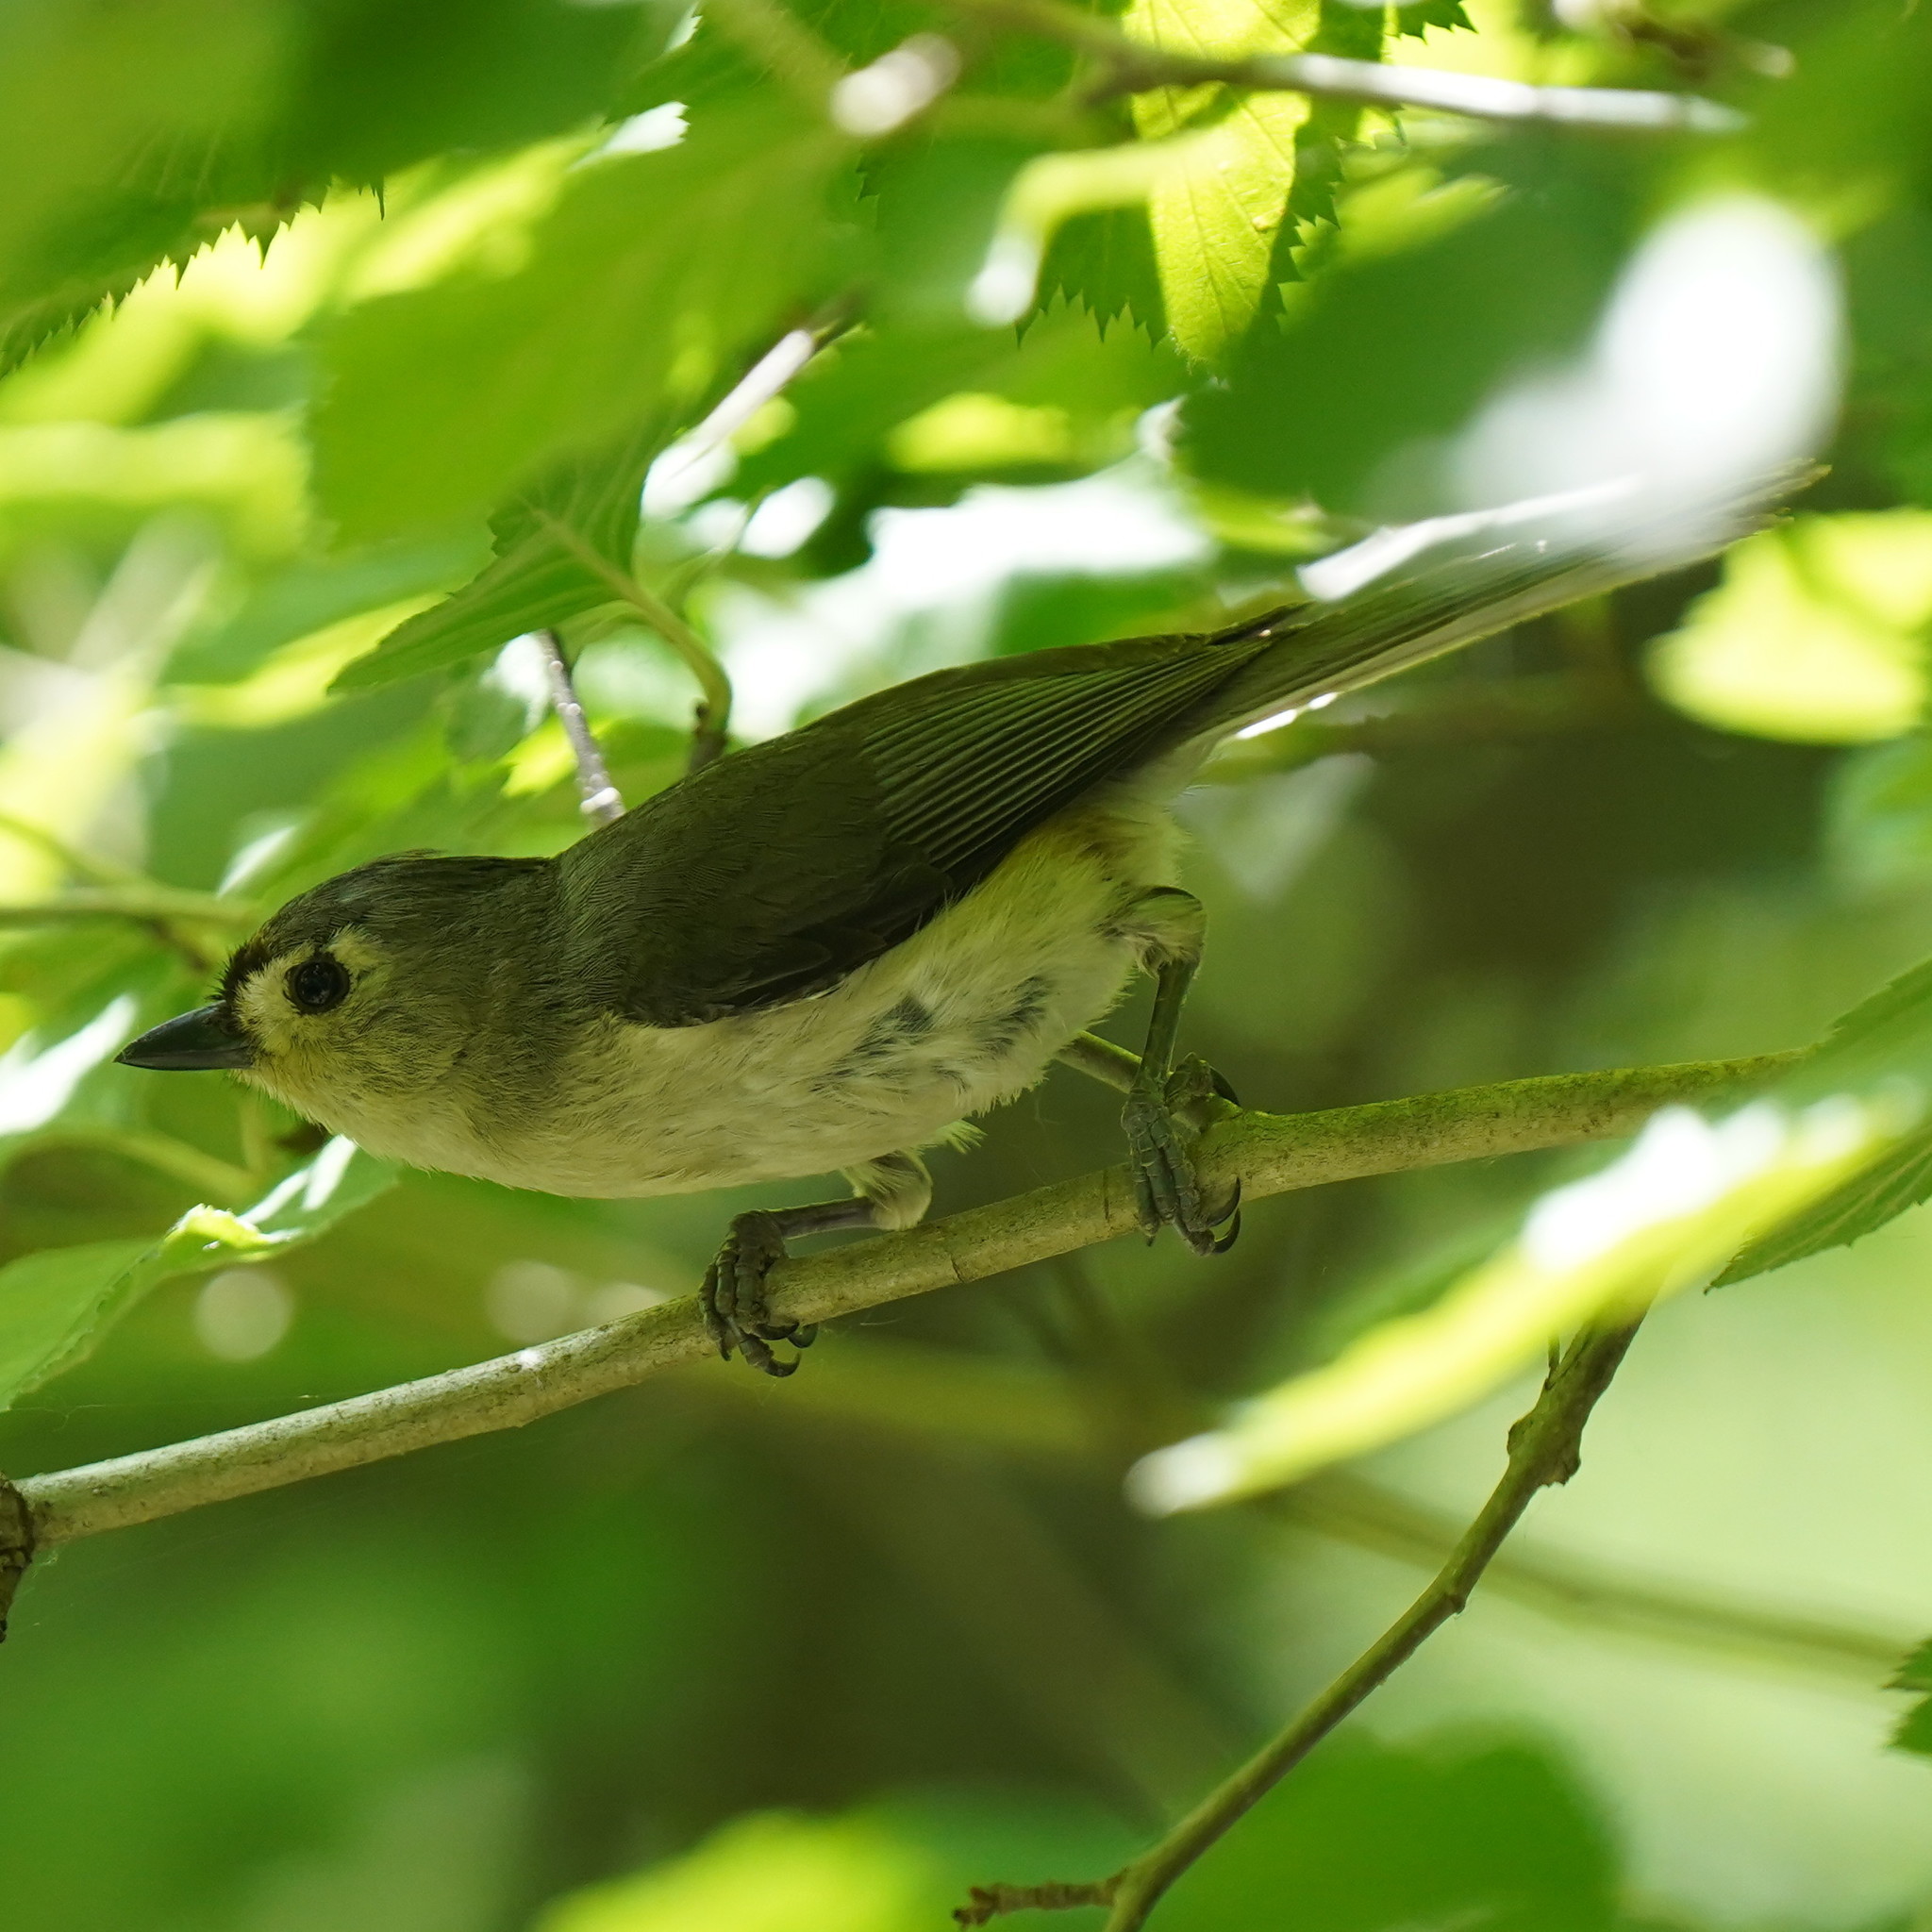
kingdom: Animalia
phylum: Chordata
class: Aves
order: Passeriformes
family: Paridae
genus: Baeolophus
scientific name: Baeolophus bicolor
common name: Tufted titmouse
